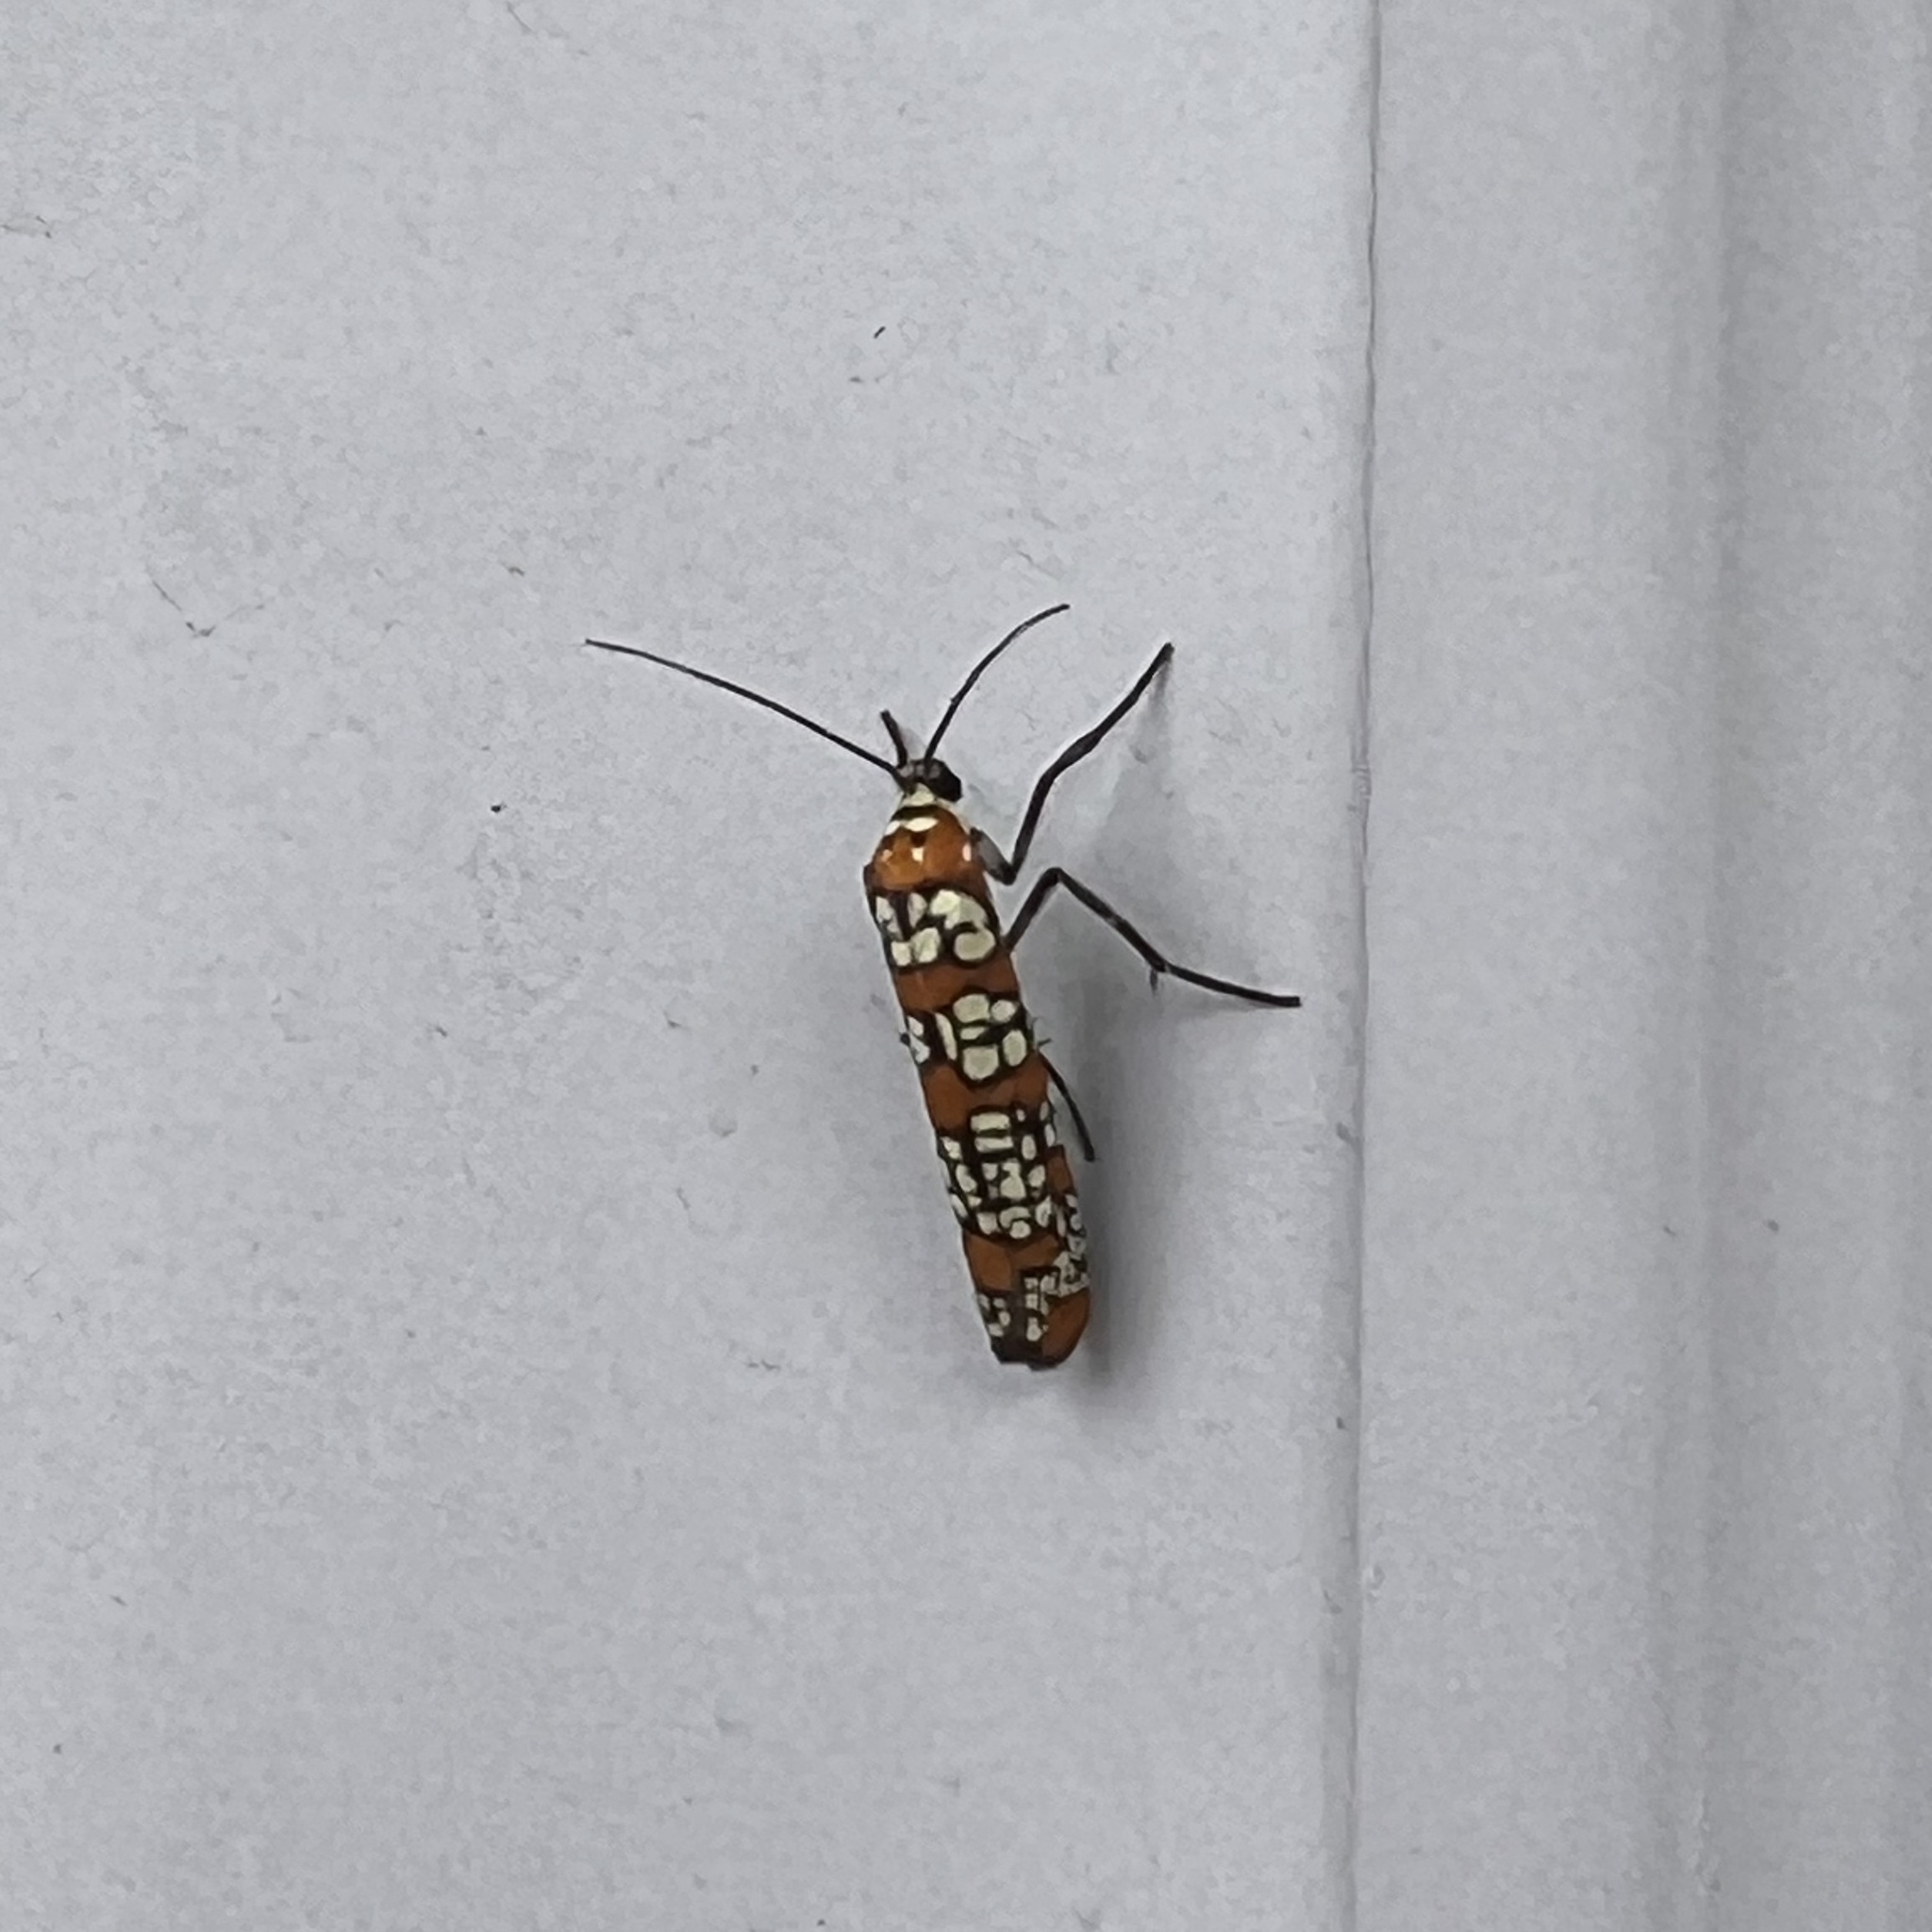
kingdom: Animalia
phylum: Arthropoda
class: Insecta
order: Lepidoptera
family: Attevidae
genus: Atteva
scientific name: Atteva punctella
